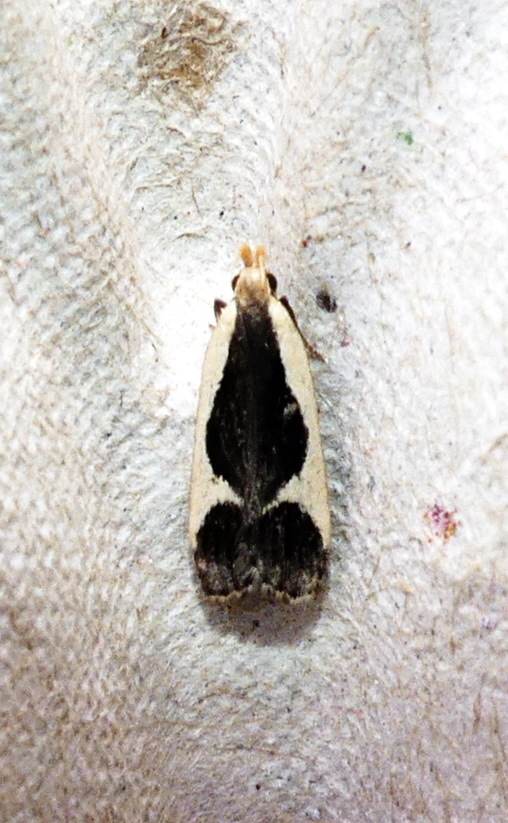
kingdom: Animalia
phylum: Arthropoda
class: Insecta
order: Lepidoptera
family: Gelechiidae
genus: Dichomeris
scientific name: Dichomeris flavocostella
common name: Cream-edged dichomeris moth
